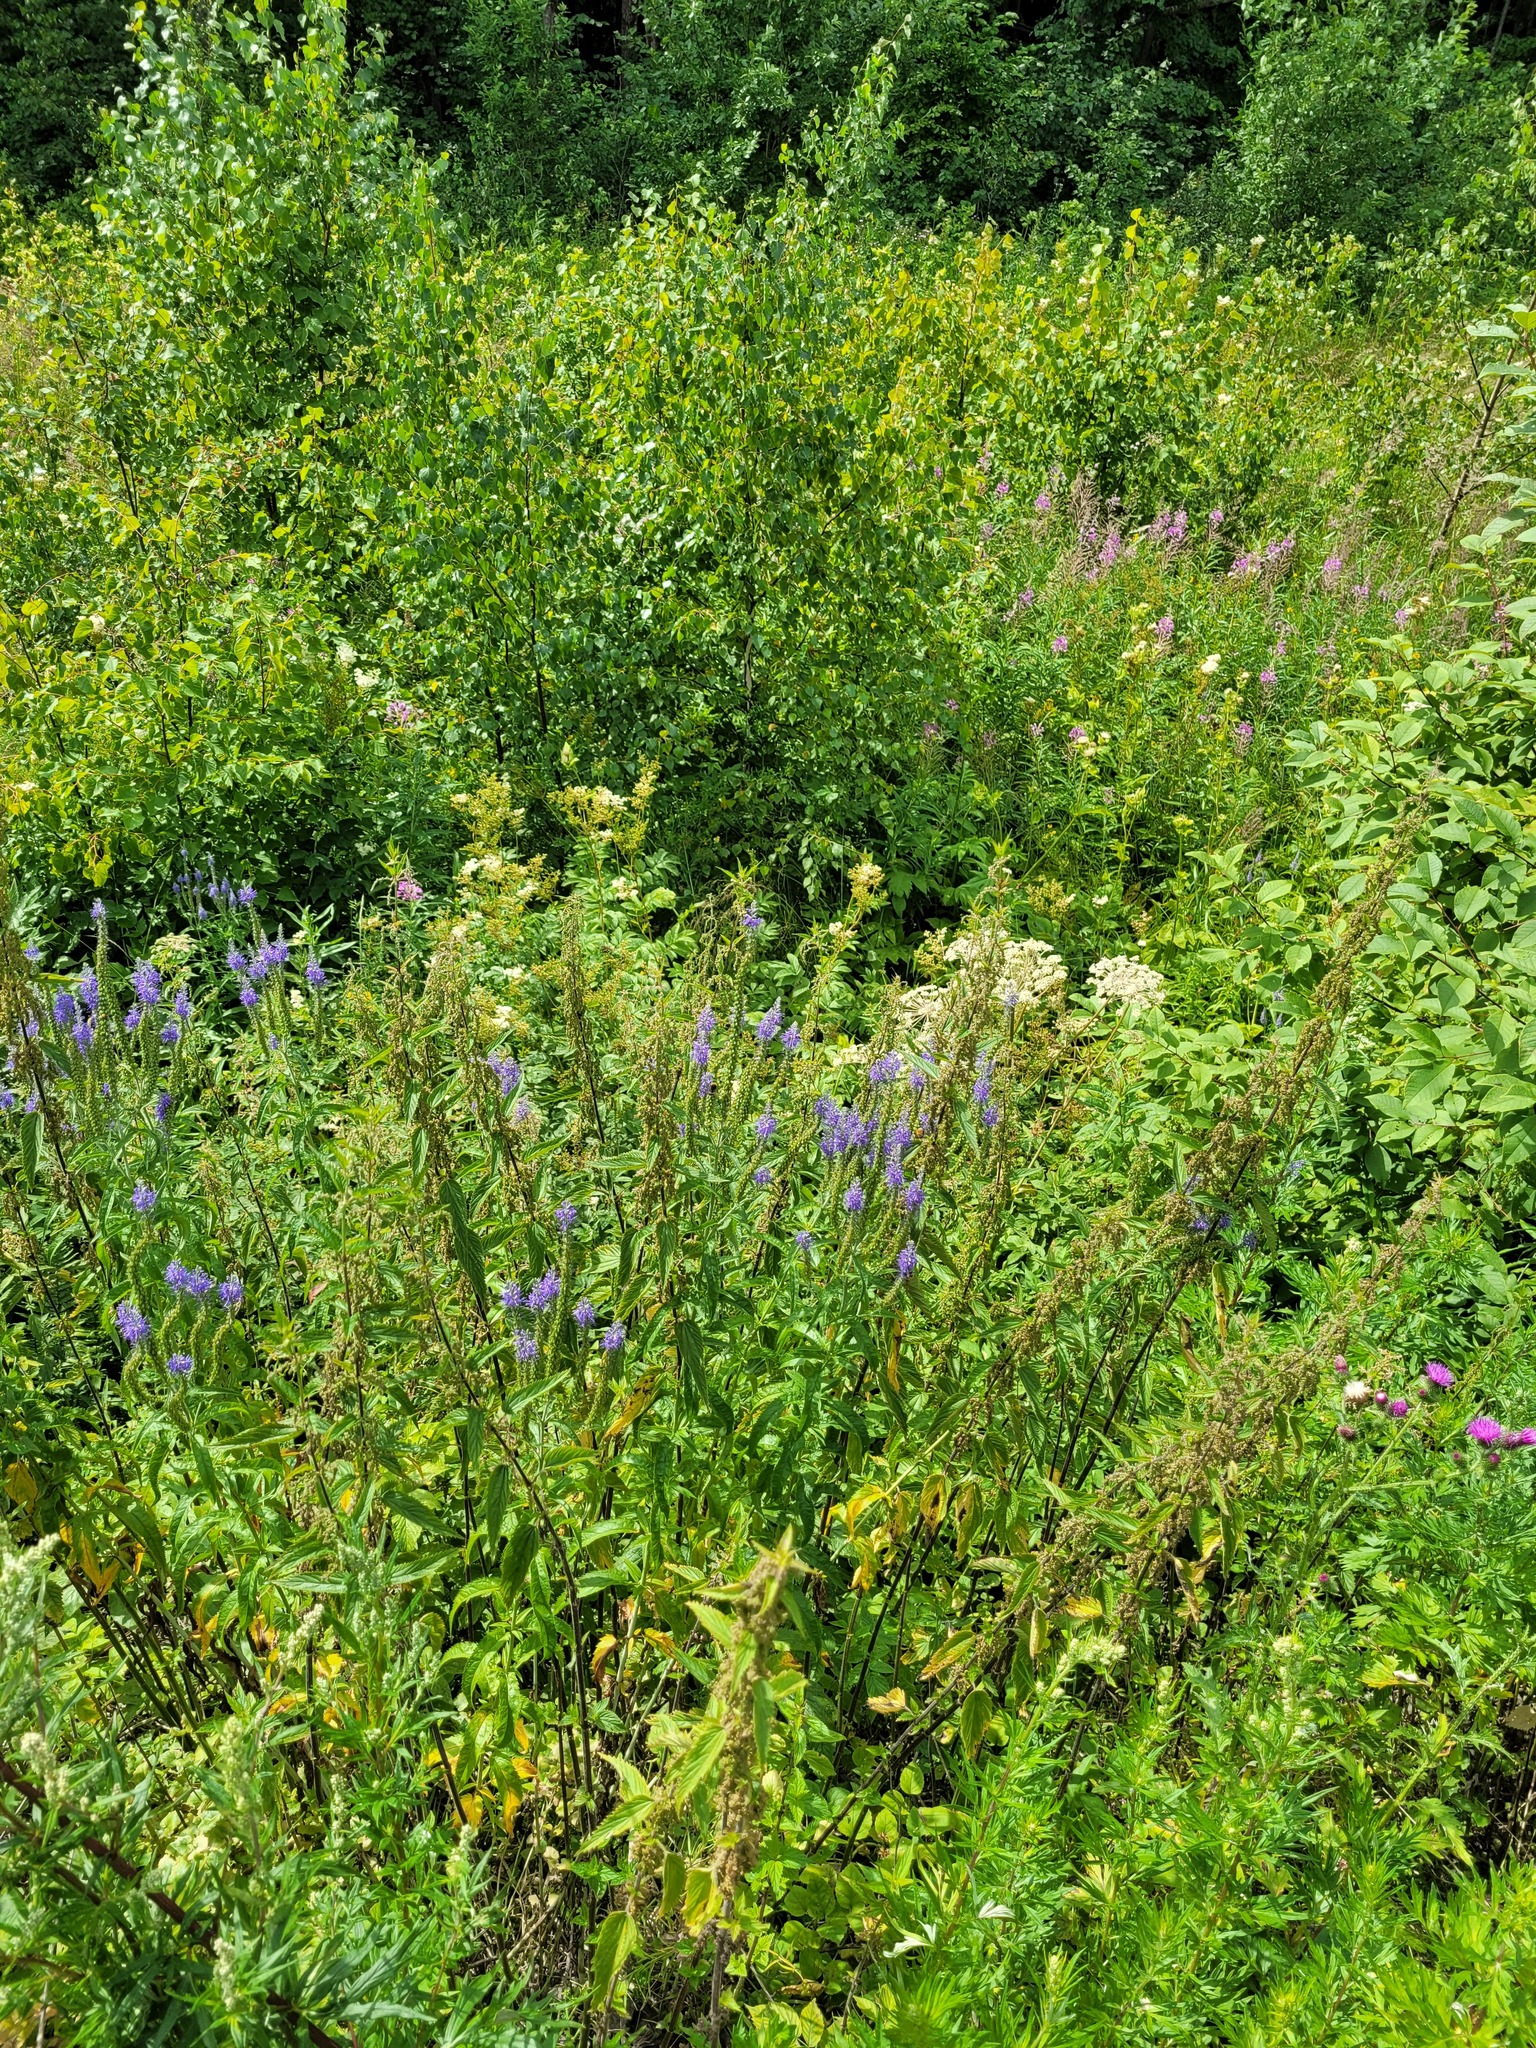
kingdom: Plantae
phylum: Tracheophyta
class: Magnoliopsida
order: Lamiales
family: Plantaginaceae
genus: Veronica
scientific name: Veronica longifolia
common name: Garden speedwell
